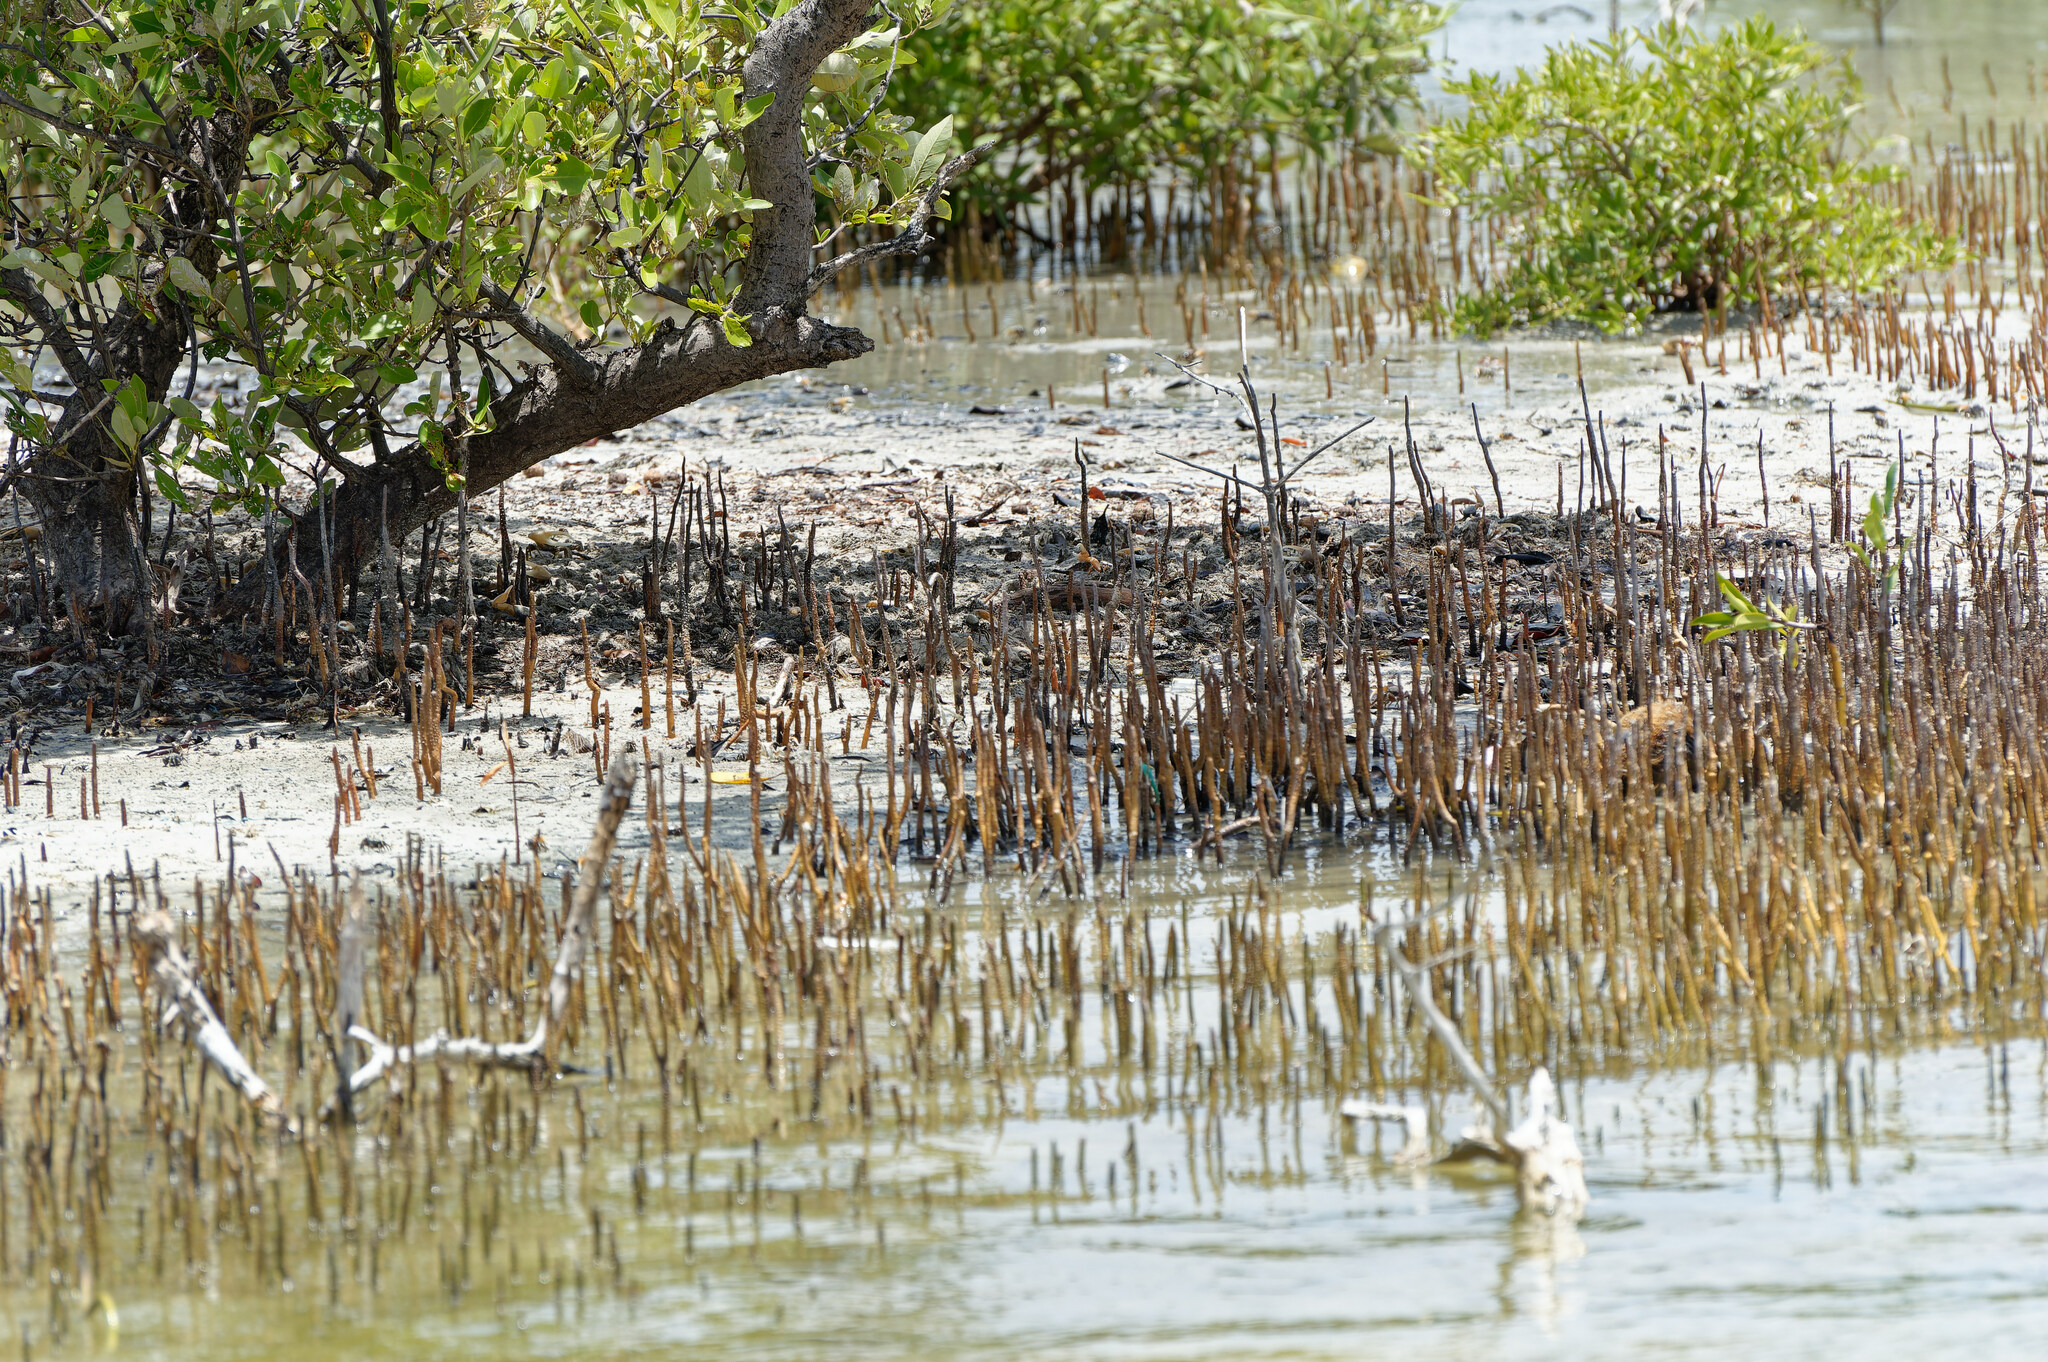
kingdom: Plantae
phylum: Tracheophyta
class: Magnoliopsida
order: Lamiales
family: Acanthaceae
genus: Avicennia
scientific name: Avicennia germinans
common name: Black mangrove
